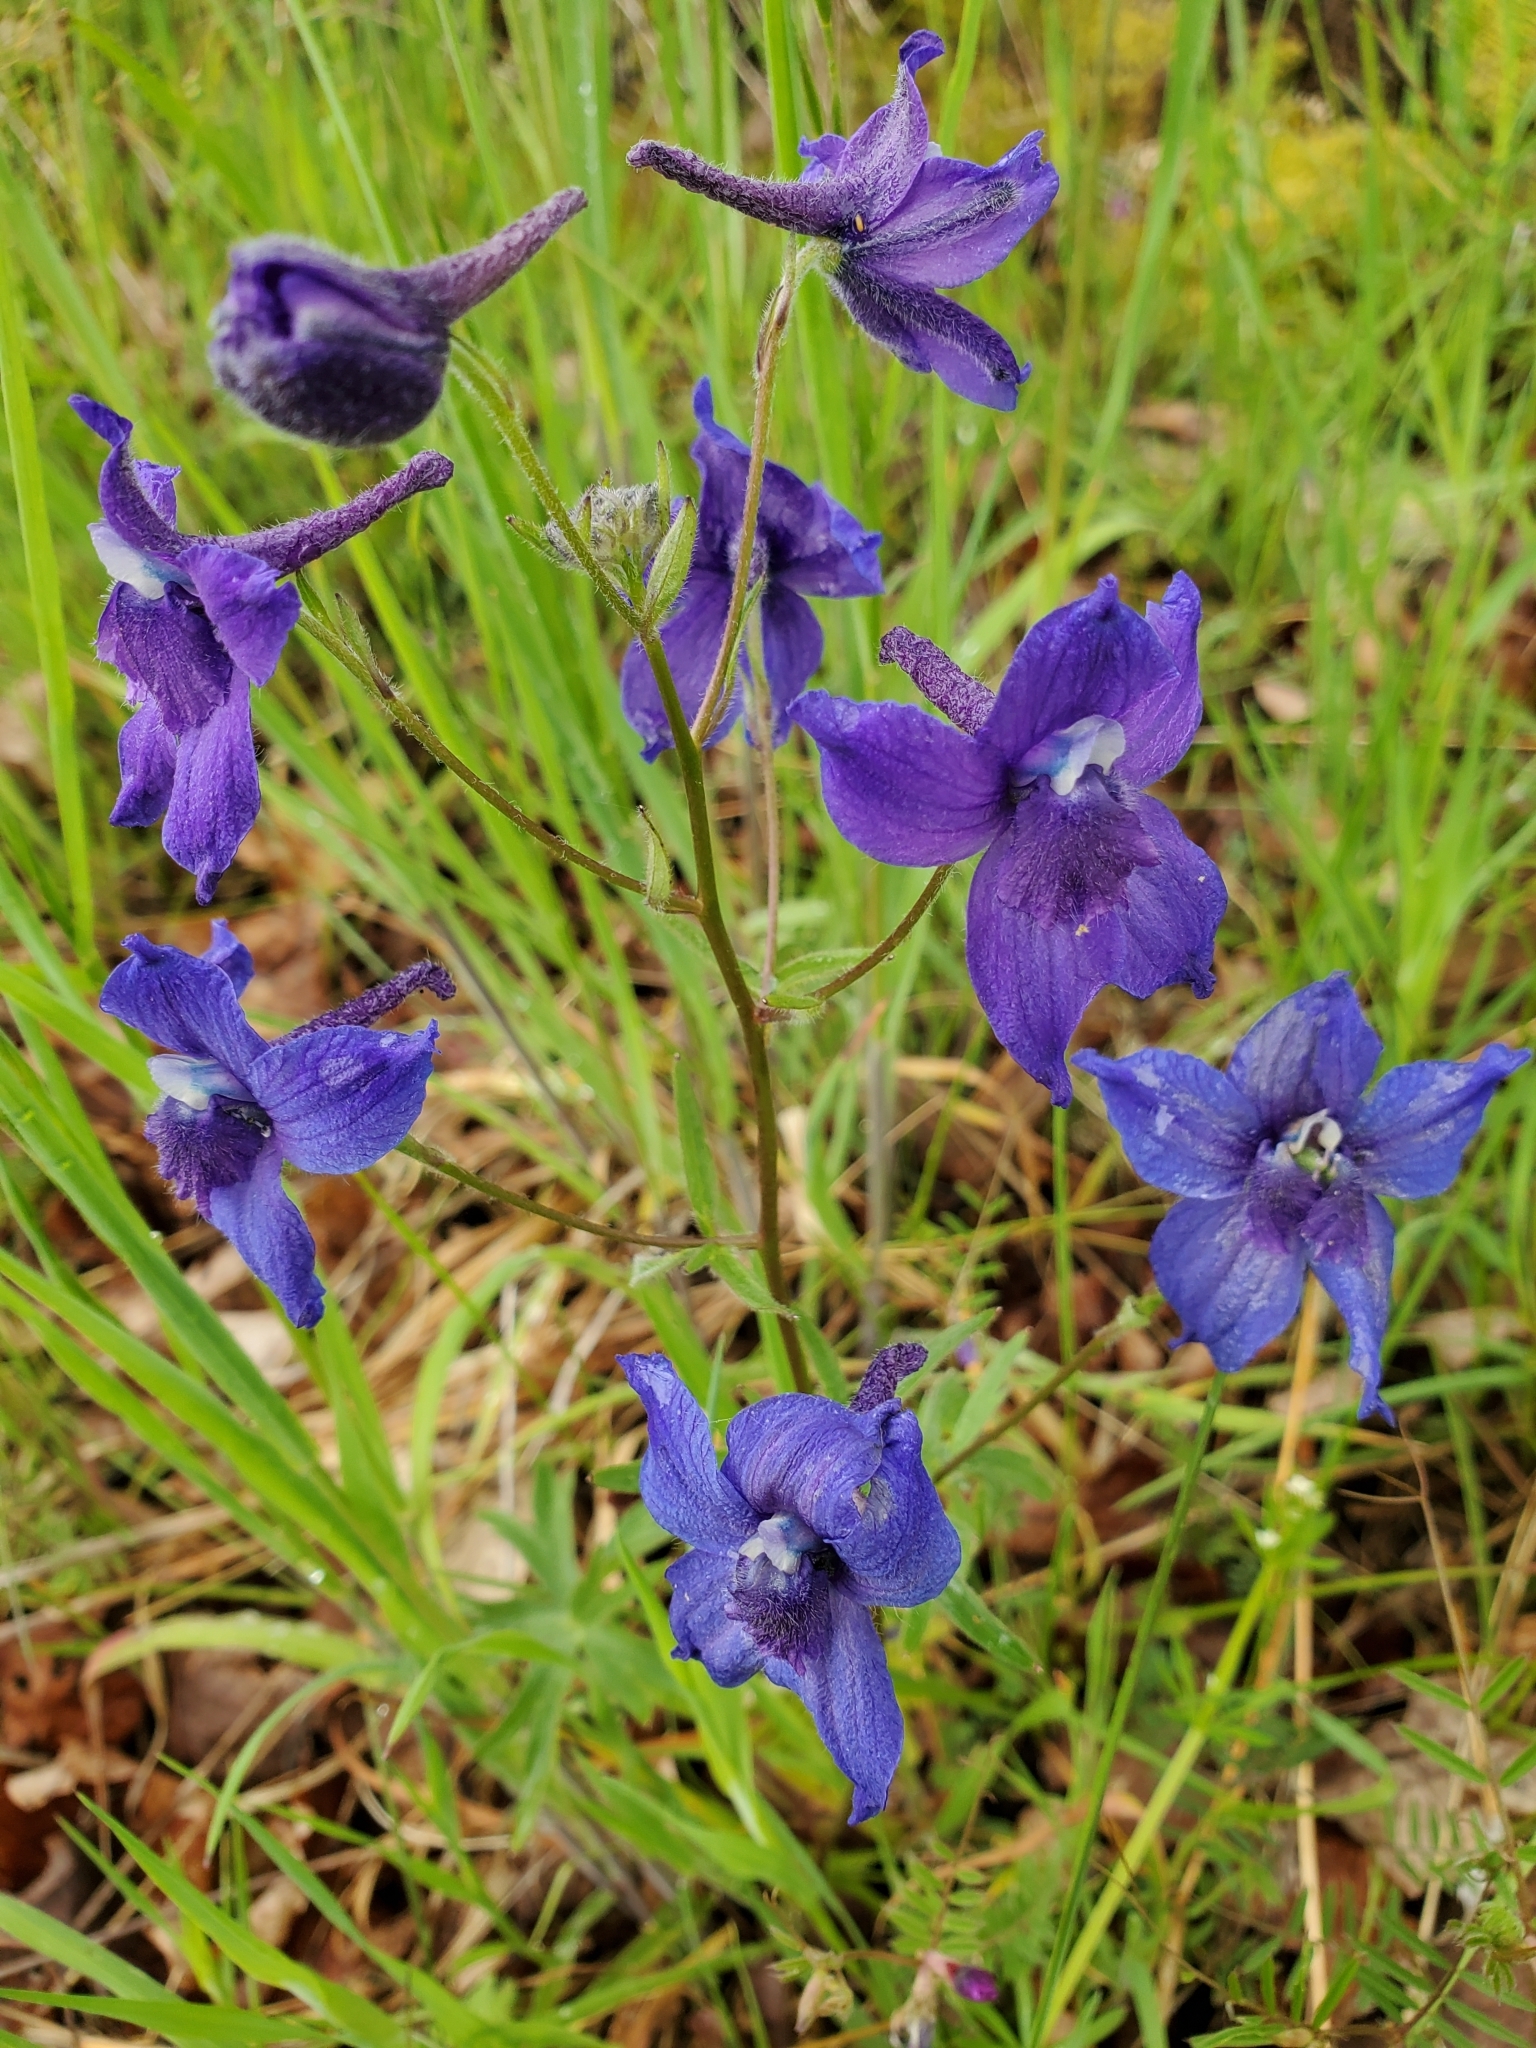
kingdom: Plantae
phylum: Tracheophyta
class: Magnoliopsida
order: Ranunculales
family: Ranunculaceae
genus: Delphinium
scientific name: Delphinium menziesii
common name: Menzies's larkspur
